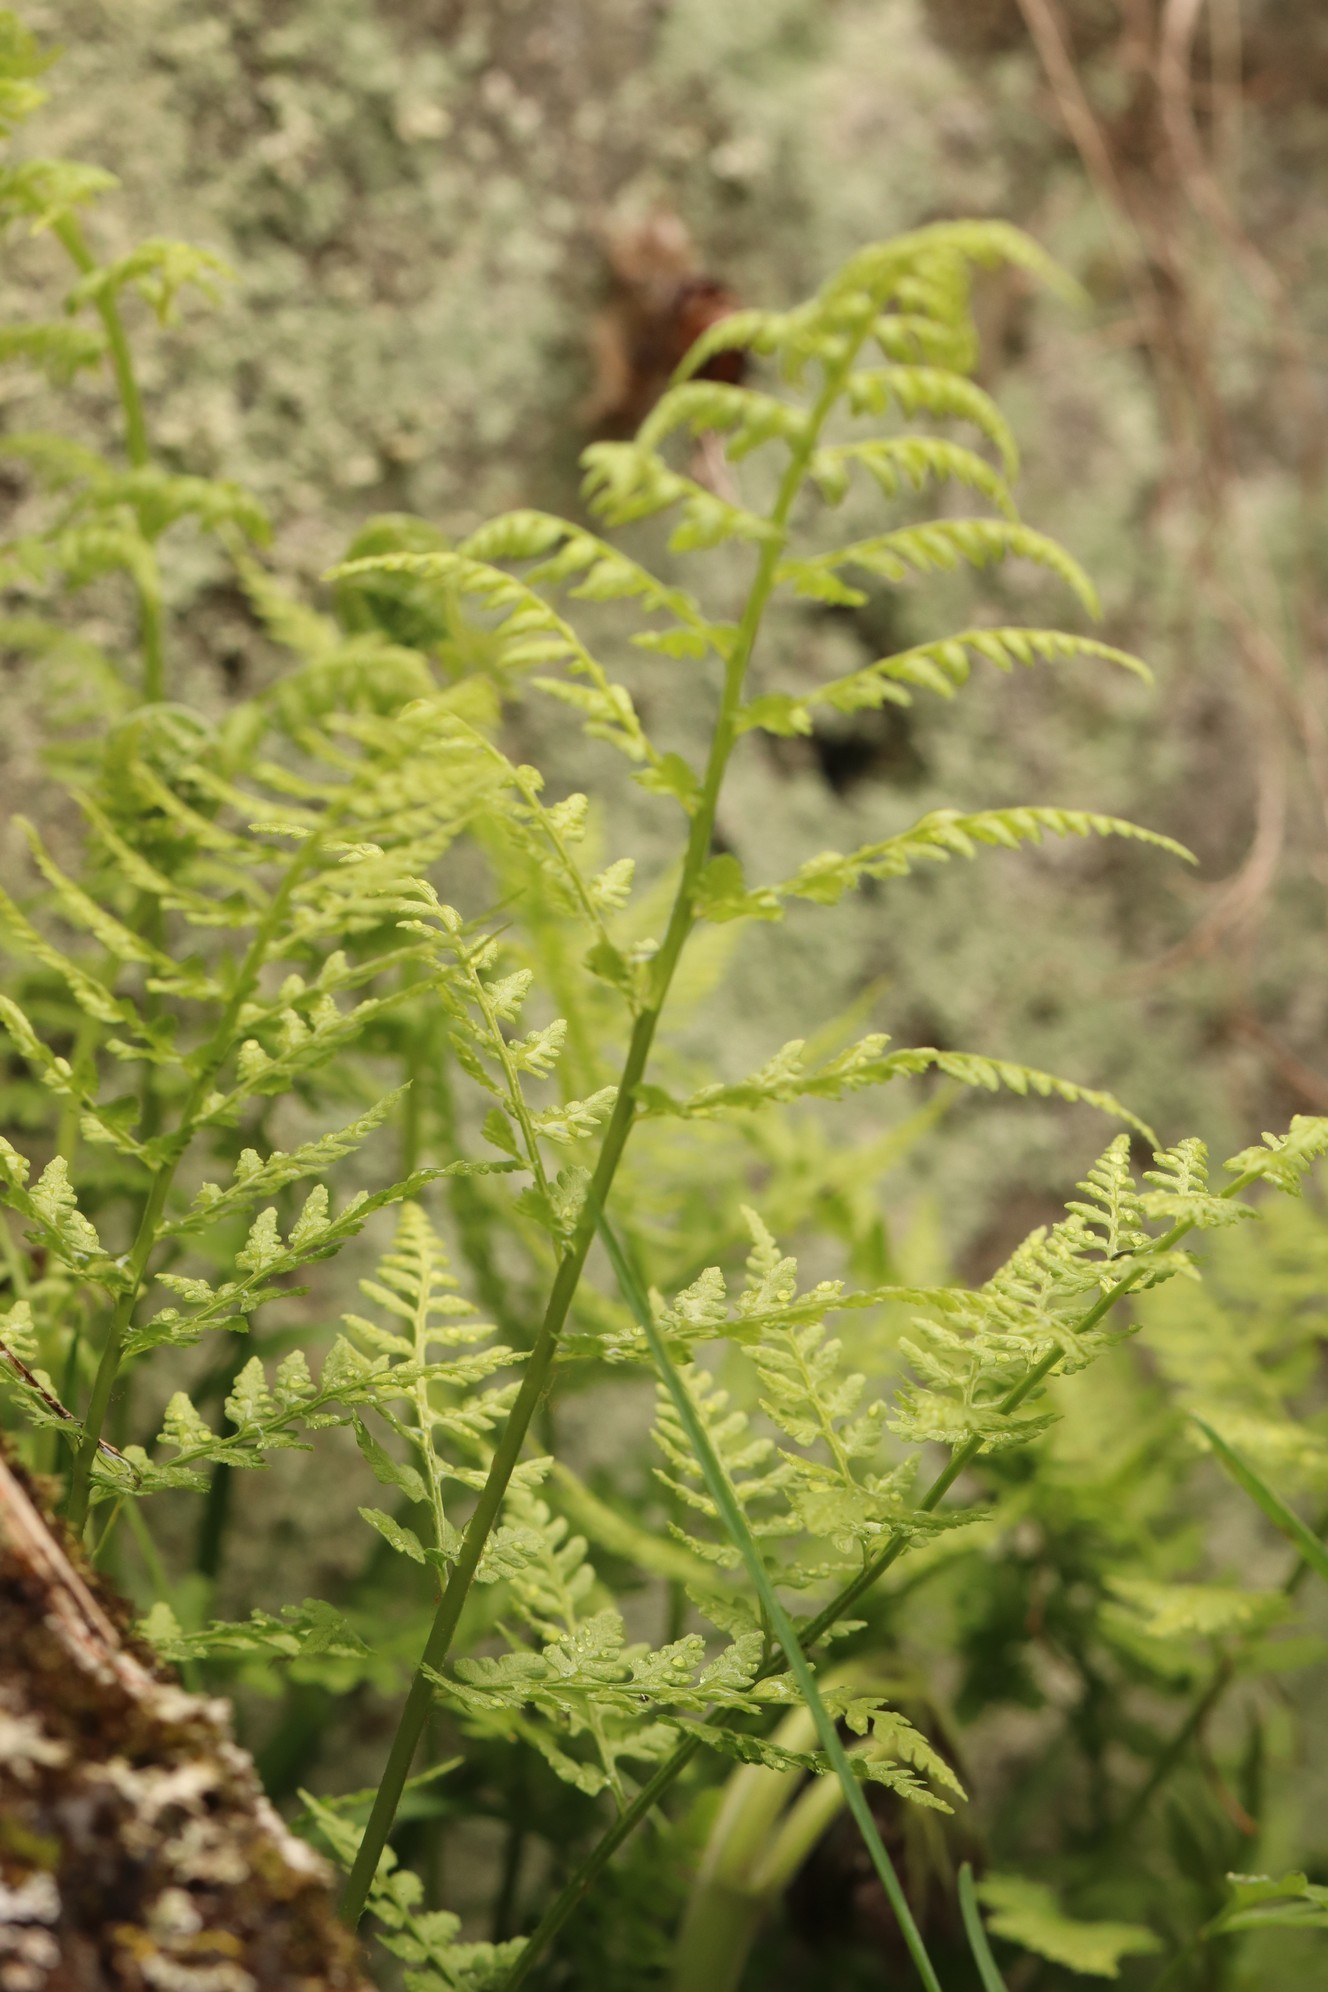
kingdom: Plantae
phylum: Tracheophyta
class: Polypodiopsida
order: Polypodiales
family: Cystopteridaceae
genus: Cystopteris
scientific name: Cystopteris fragilis
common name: Brittle bladder fern
